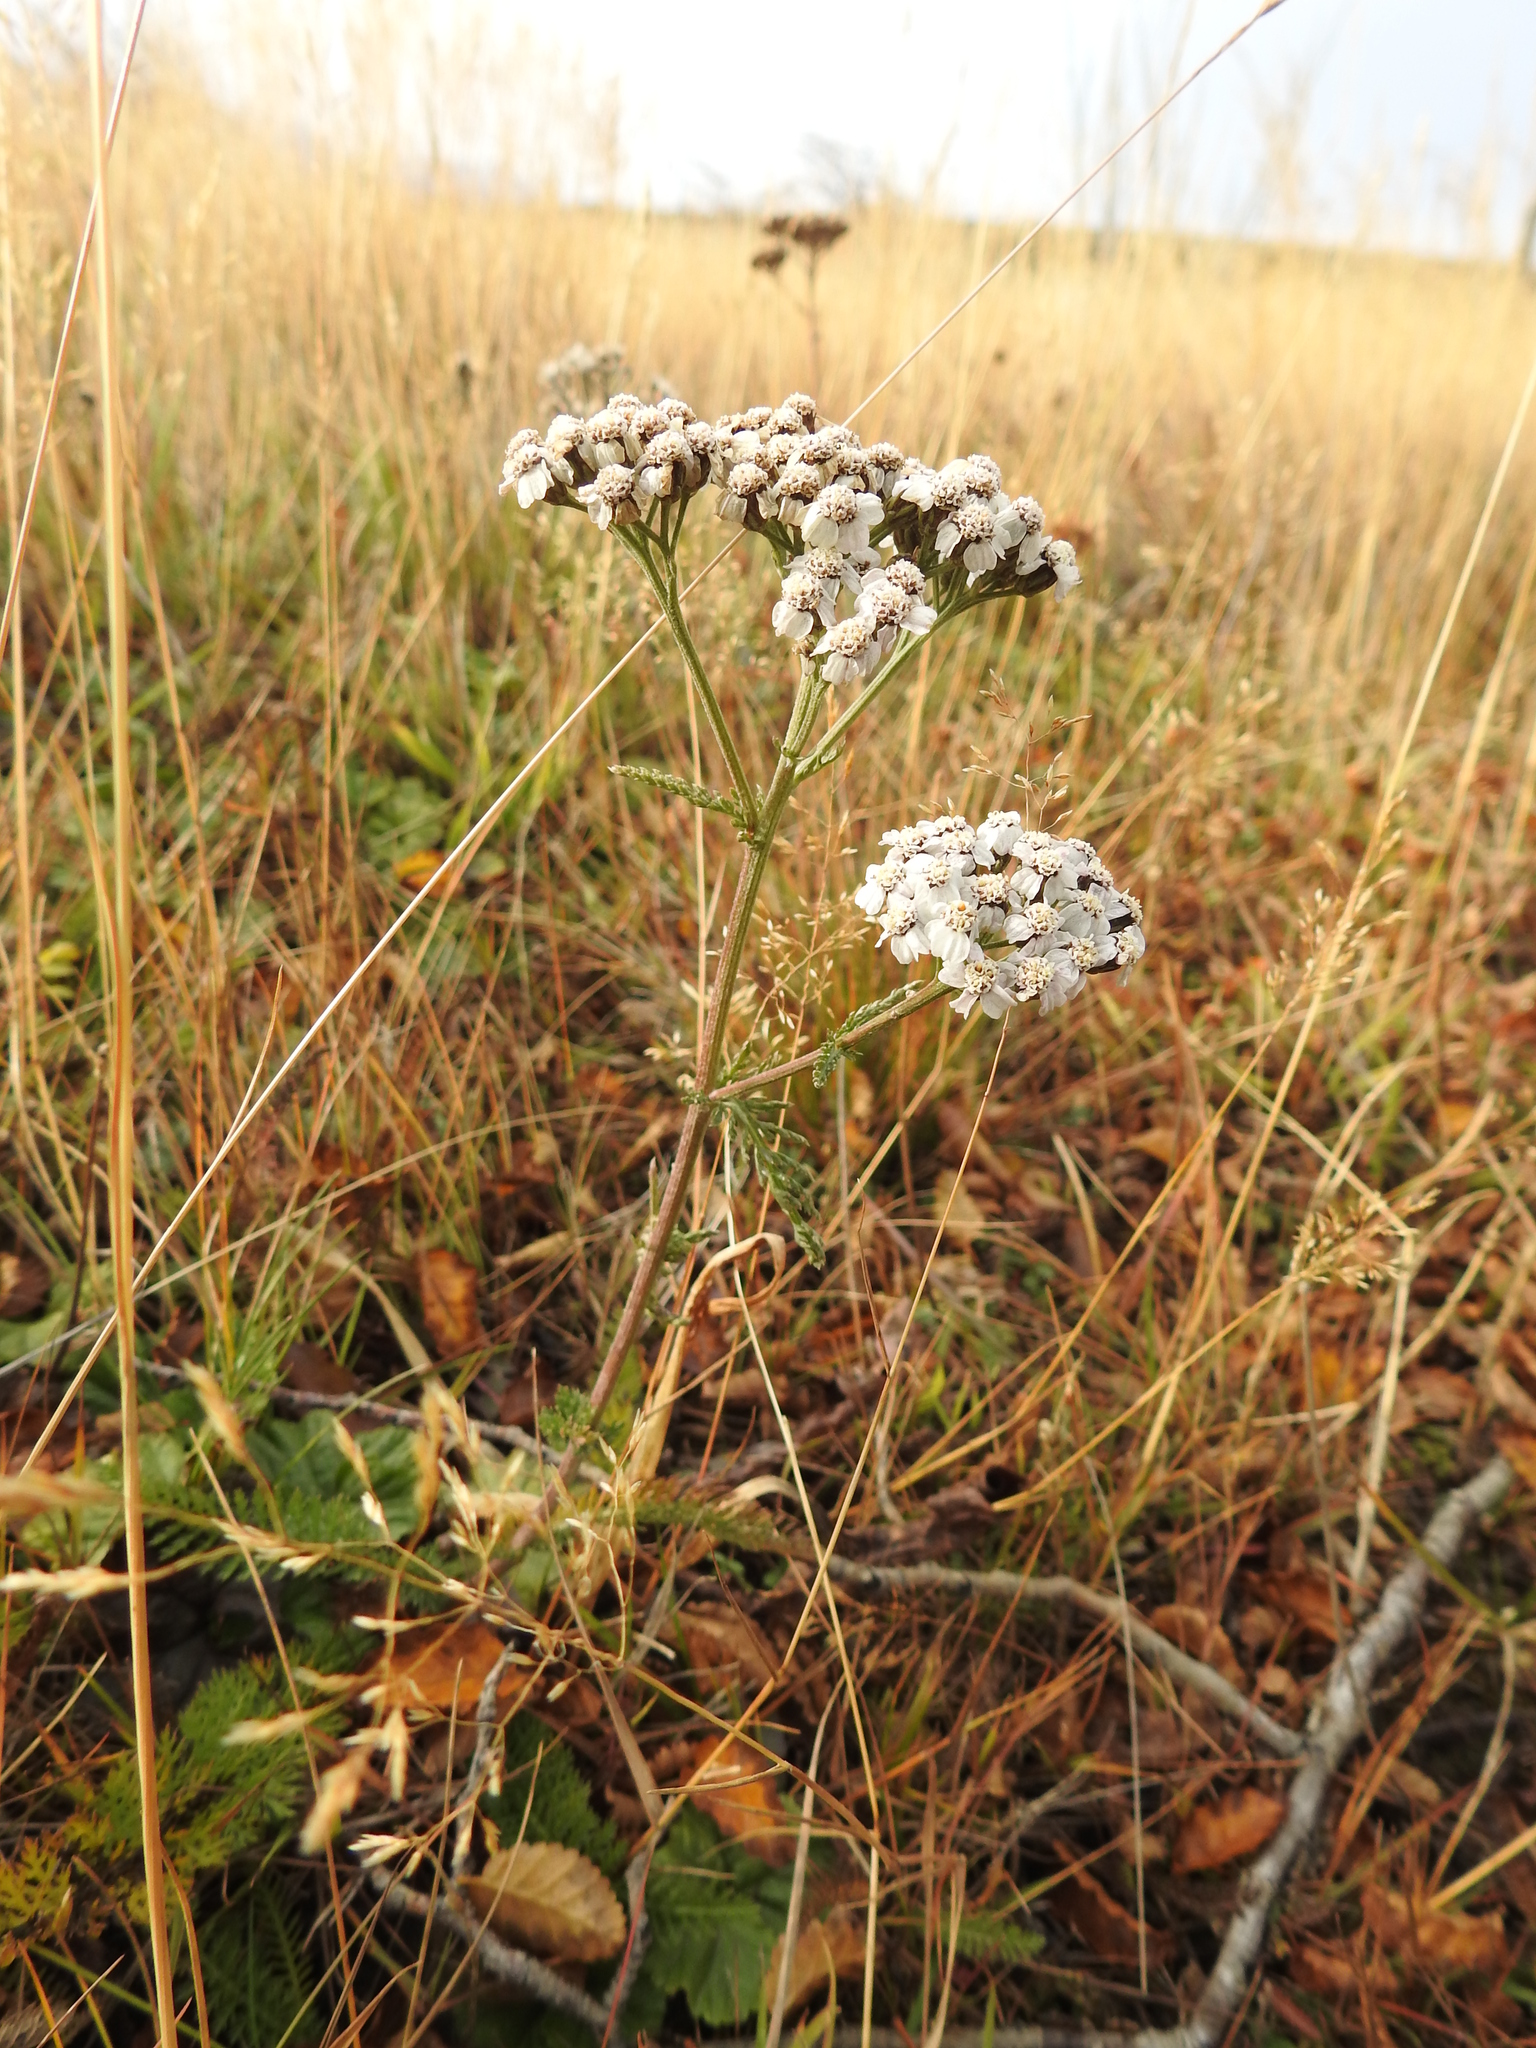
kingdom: Plantae
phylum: Tracheophyta
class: Magnoliopsida
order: Asterales
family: Asteraceae
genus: Achillea
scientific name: Achillea millefolium
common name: Yarrow
